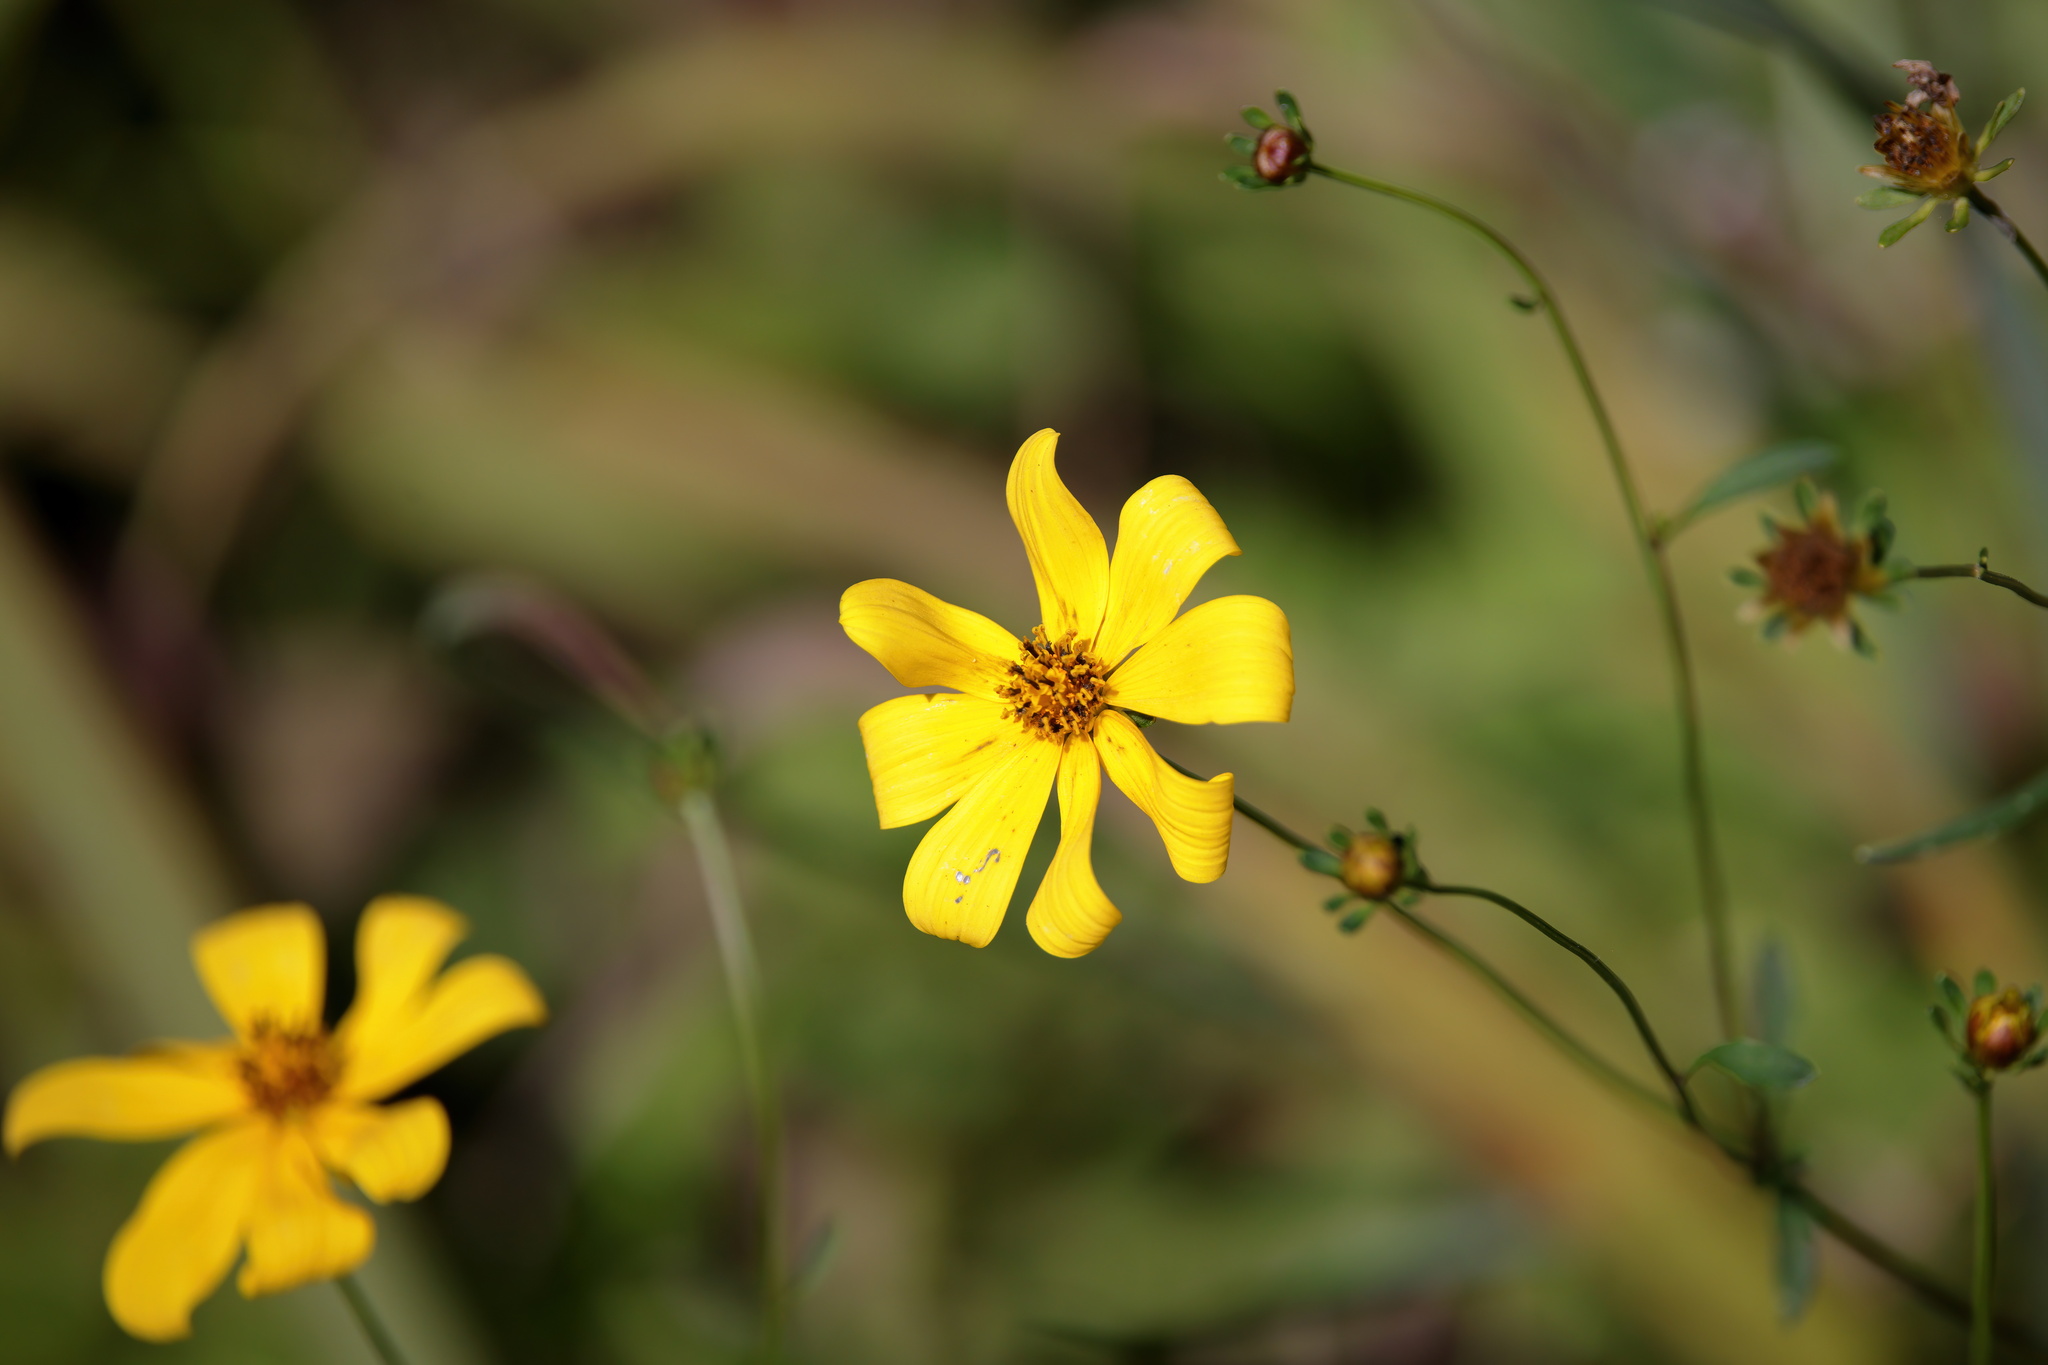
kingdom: Plantae
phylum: Tracheophyta
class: Magnoliopsida
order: Asterales
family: Asteraceae
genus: Bidens
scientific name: Bidens mitis
